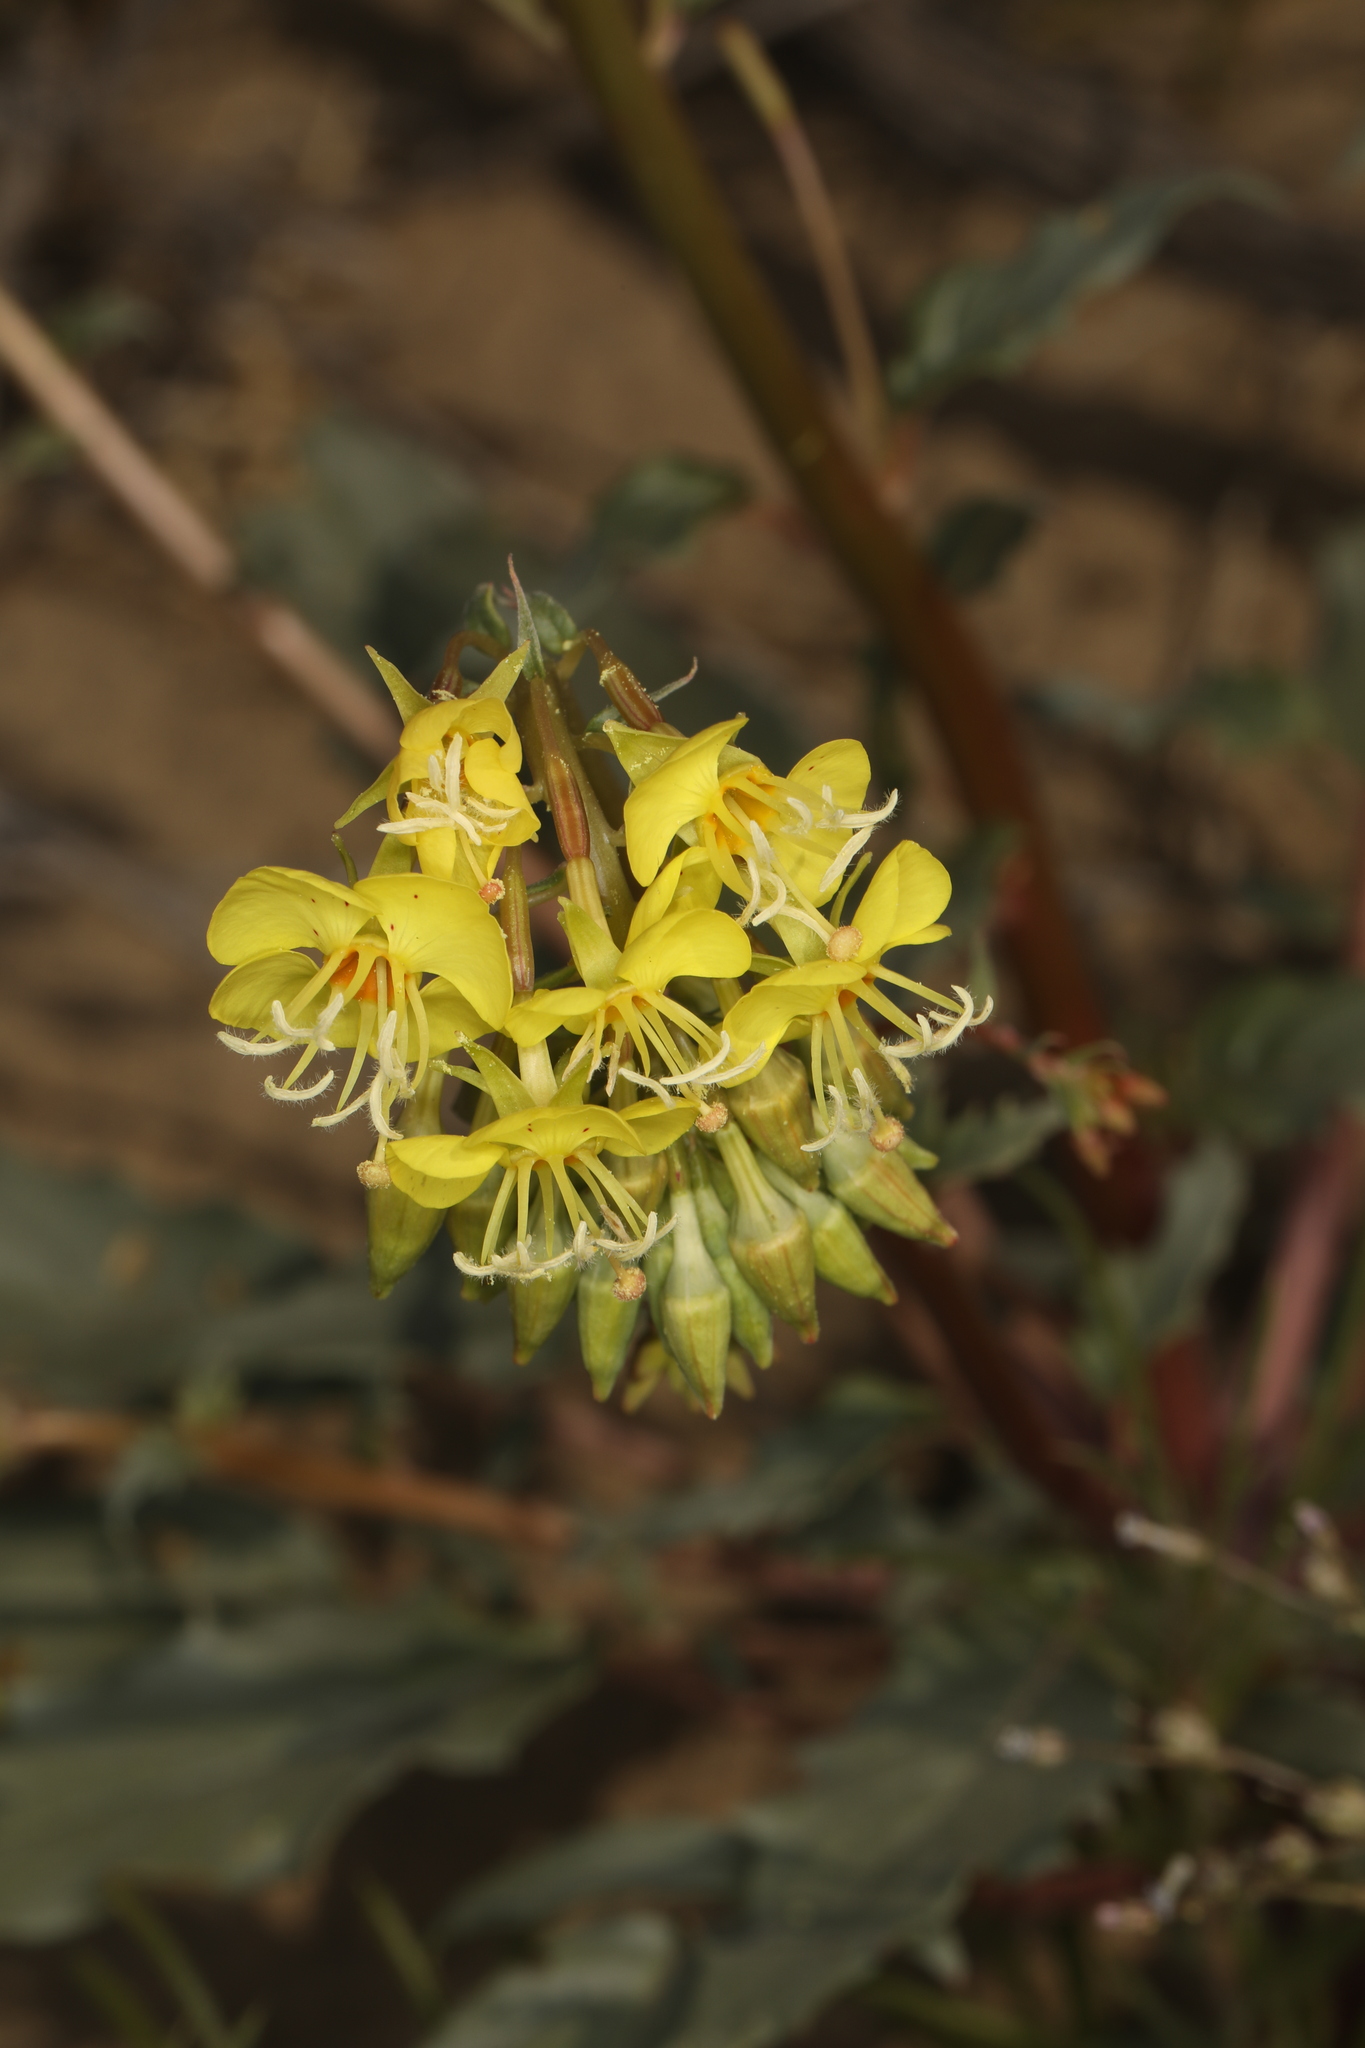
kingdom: Plantae
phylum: Tracheophyta
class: Magnoliopsida
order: Myrtales
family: Onagraceae
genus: Chylismia
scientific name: Chylismia claviformis
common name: Browneyes
